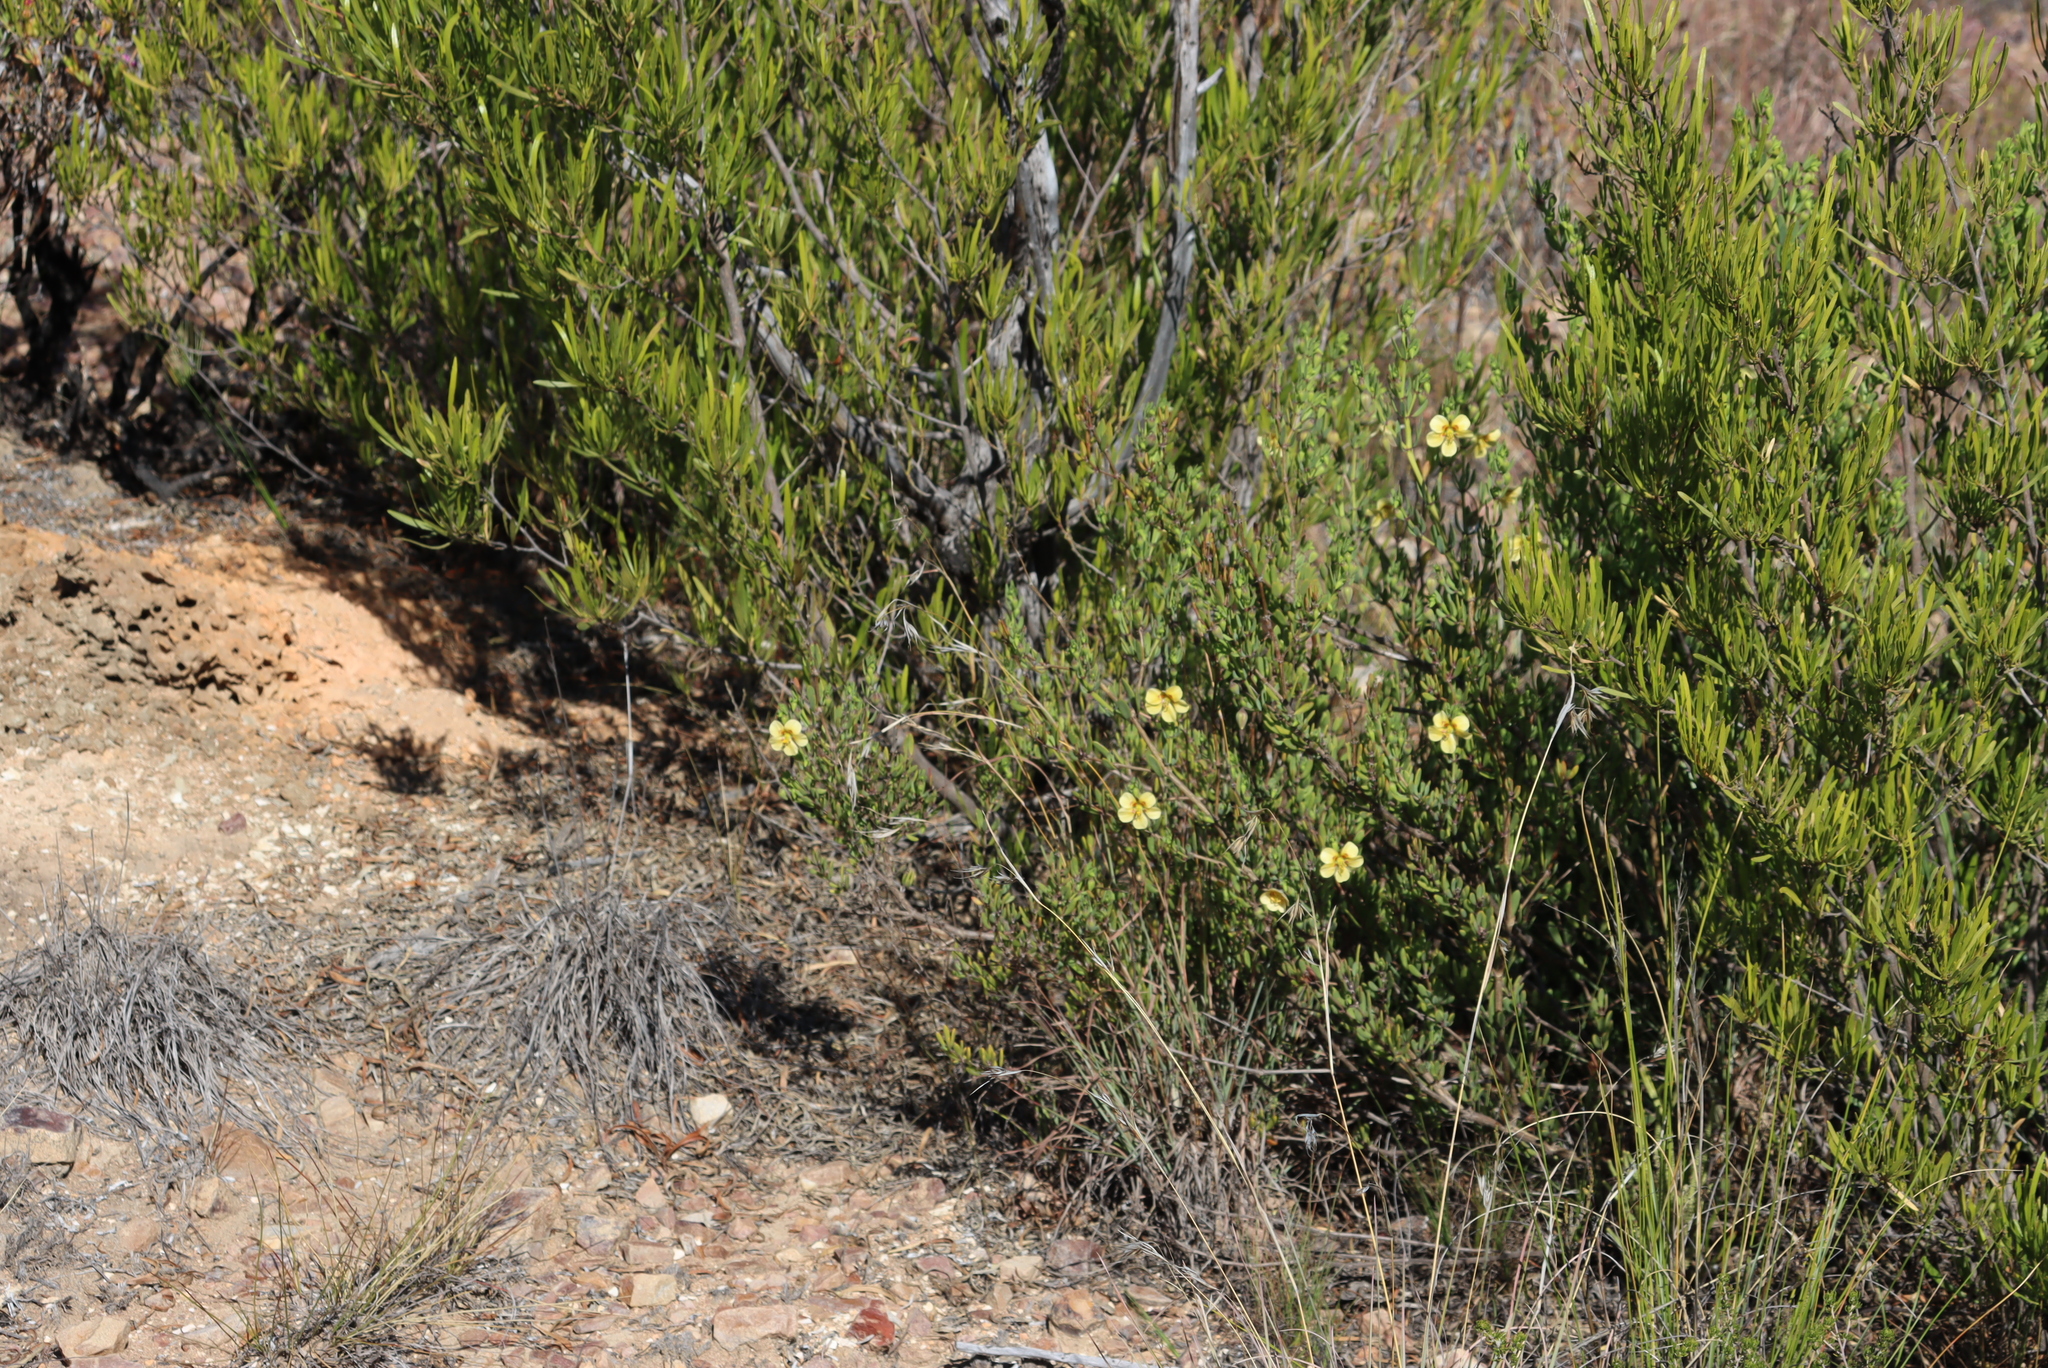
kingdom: Plantae
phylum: Tracheophyta
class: Magnoliopsida
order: Zygophyllales
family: Zygophyllaceae
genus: Roepera
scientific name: Roepera fulva
